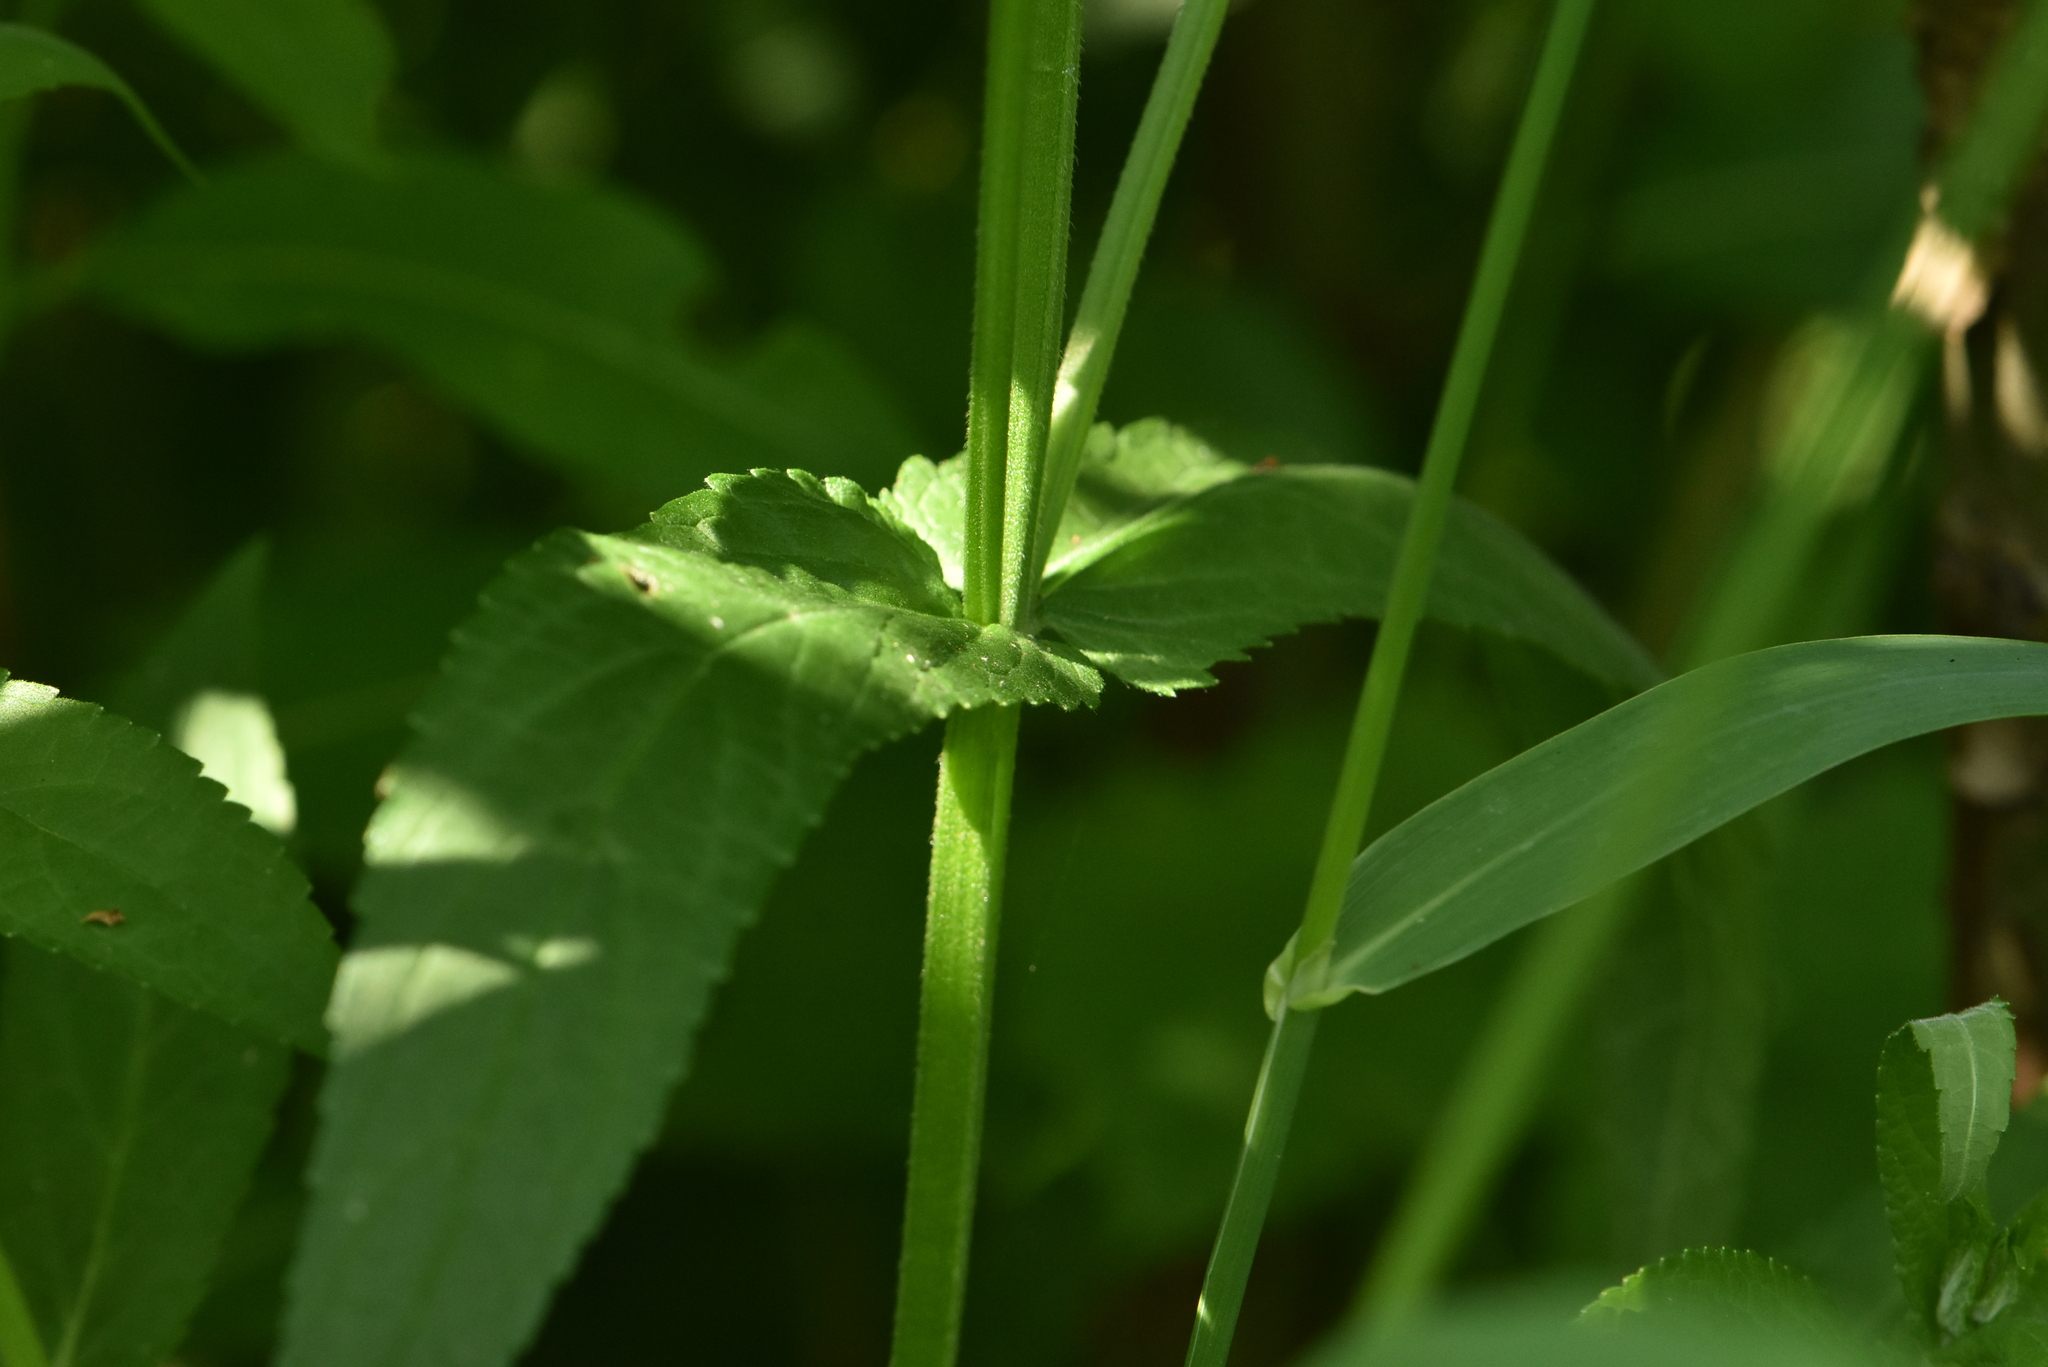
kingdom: Plantae
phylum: Tracheophyta
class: Magnoliopsida
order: Lamiales
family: Lamiaceae
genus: Stachys
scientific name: Stachys palustris
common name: Marsh woundwort
